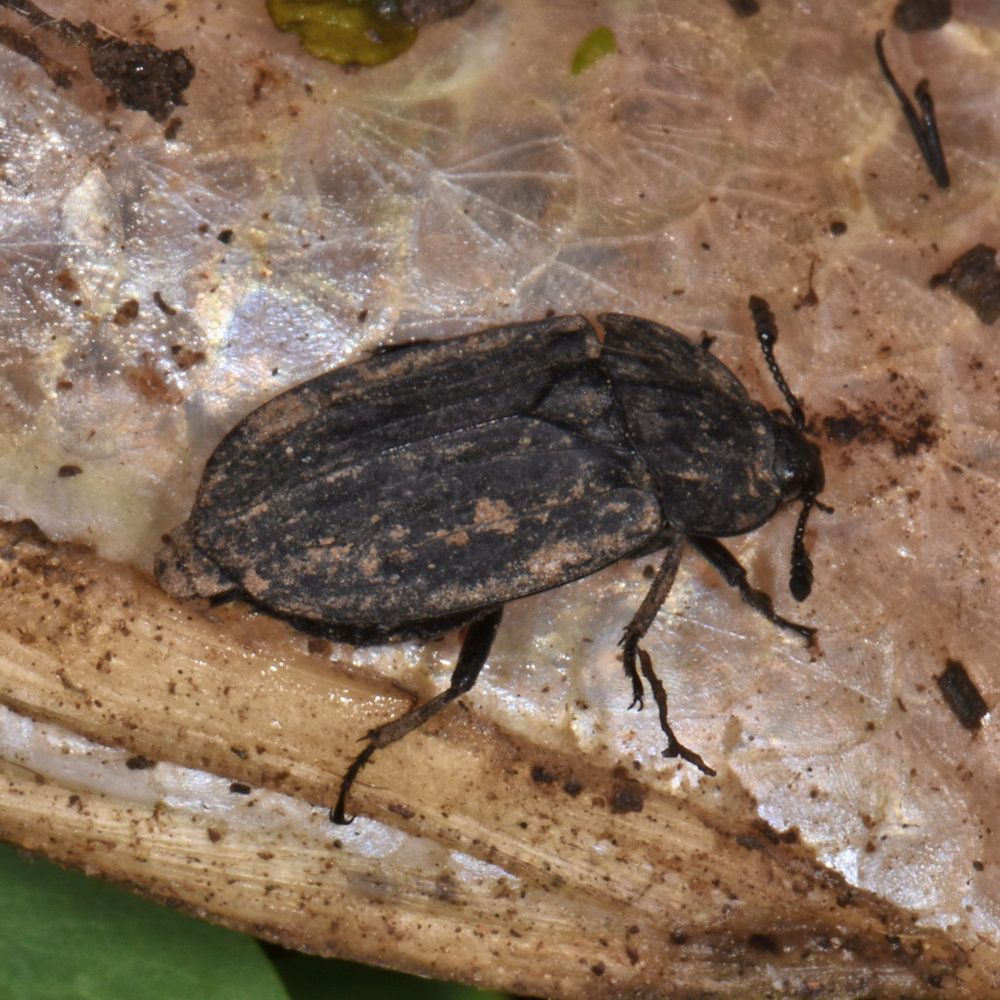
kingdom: Animalia
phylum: Arthropoda
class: Insecta
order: Coleoptera
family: Staphylinidae
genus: Oiceoptoma
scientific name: Oiceoptoma inaequale
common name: Ridged carrion beetle
